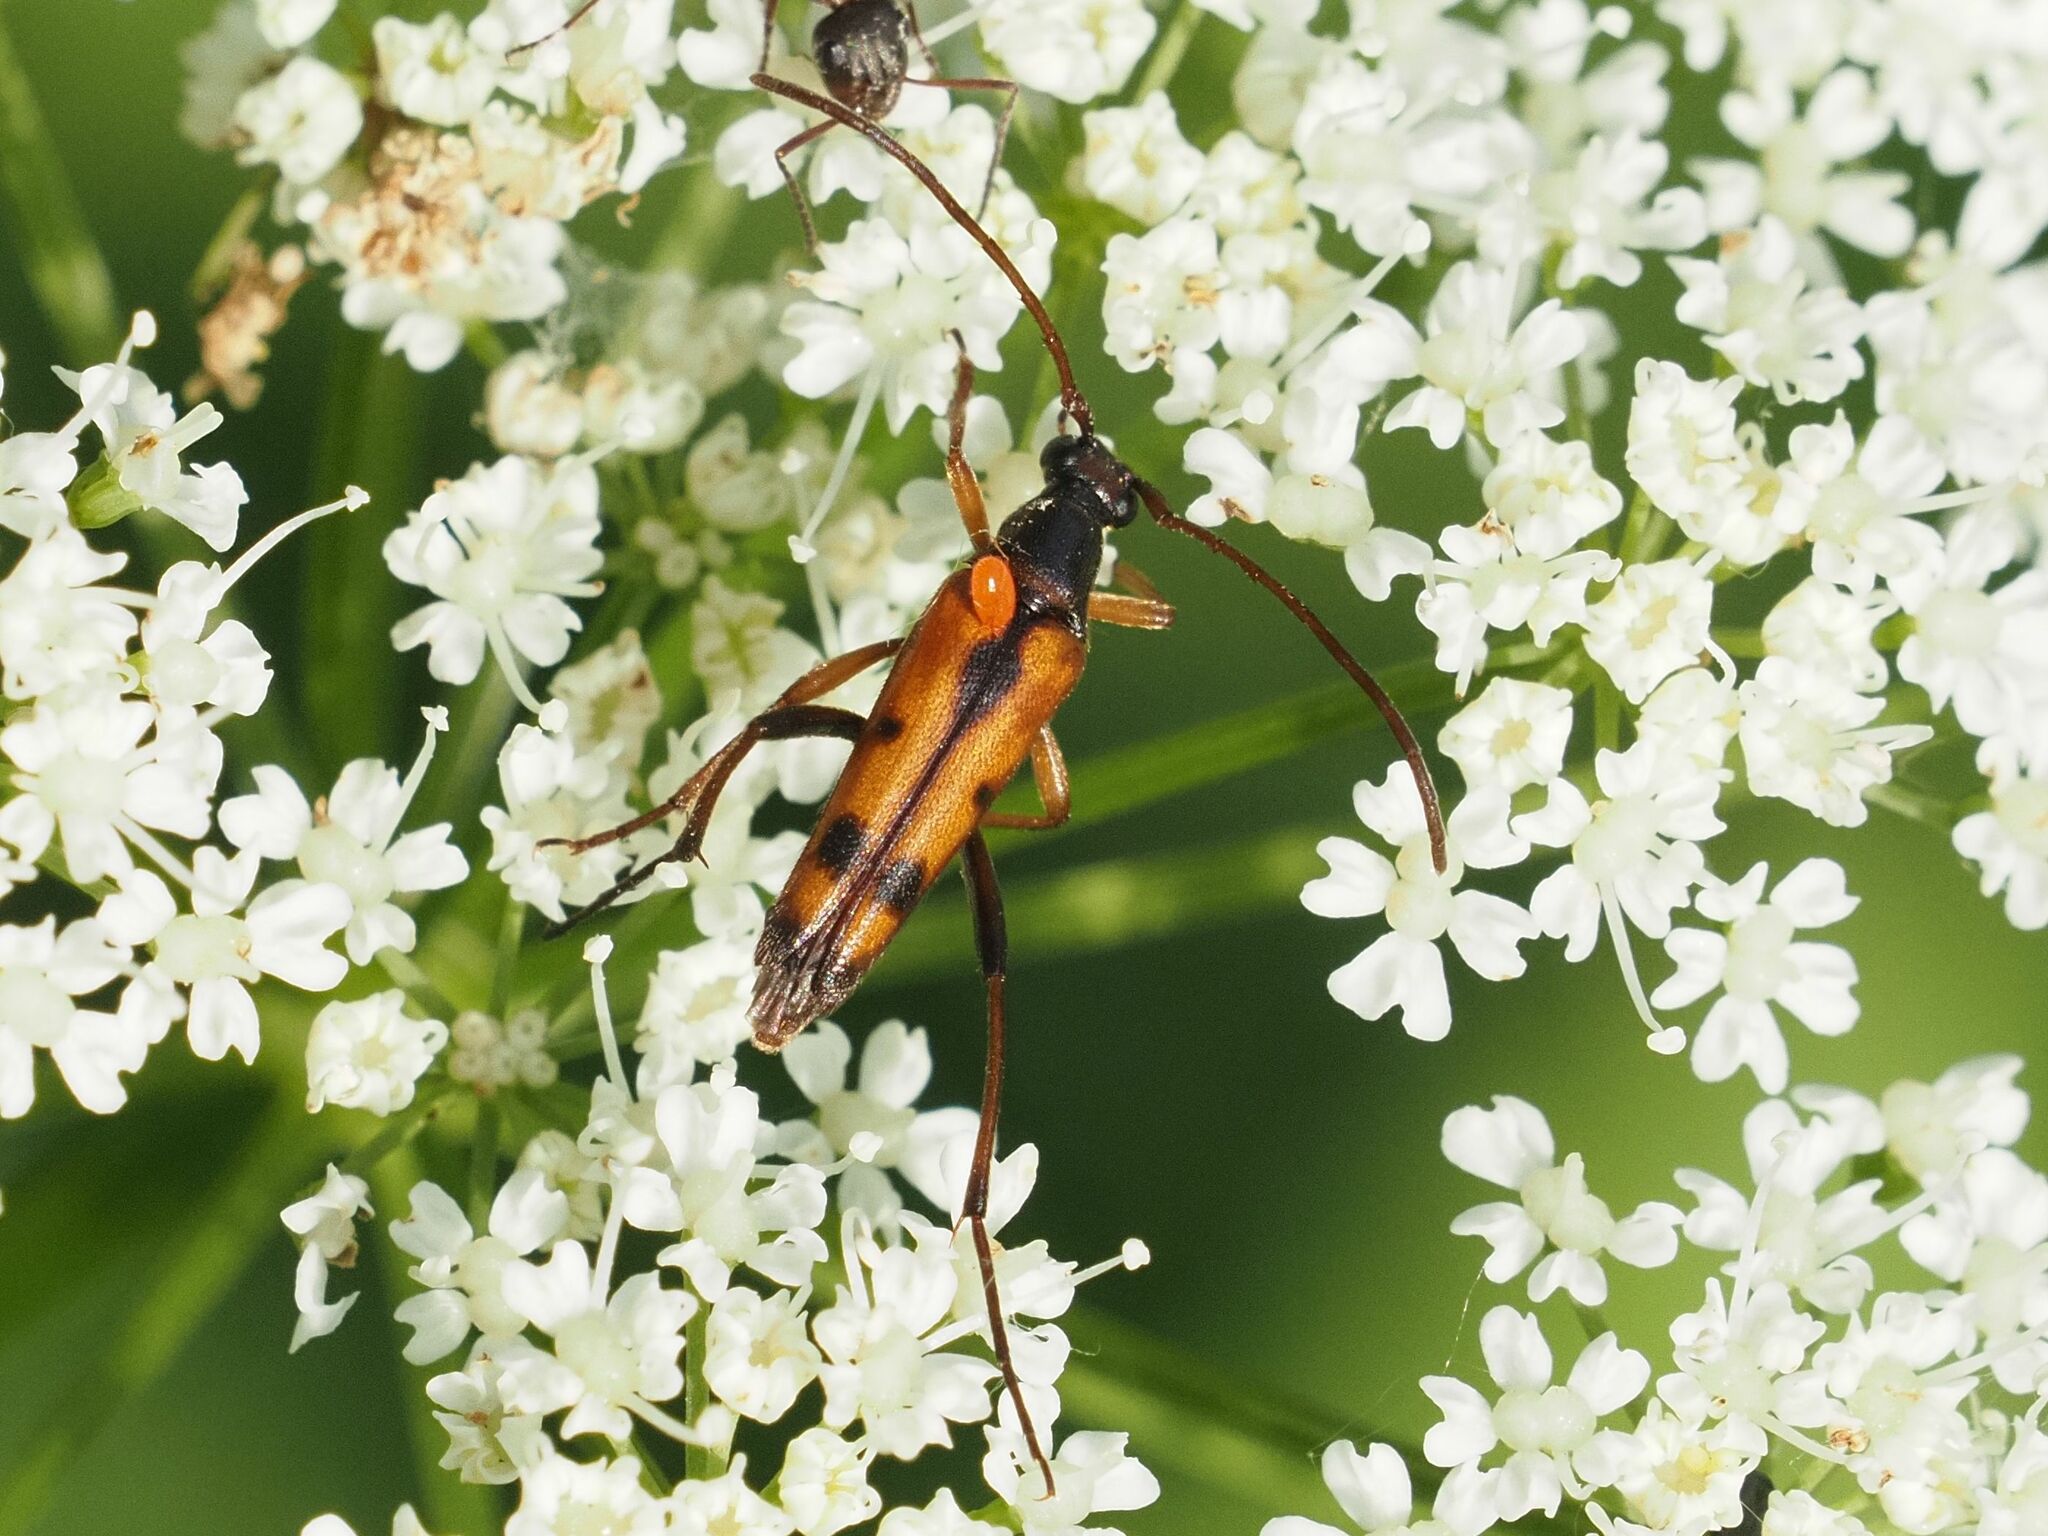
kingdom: Animalia
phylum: Arthropoda
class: Insecta
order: Coleoptera
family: Cerambycidae
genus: Stenurella
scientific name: Stenurella septempunctata
